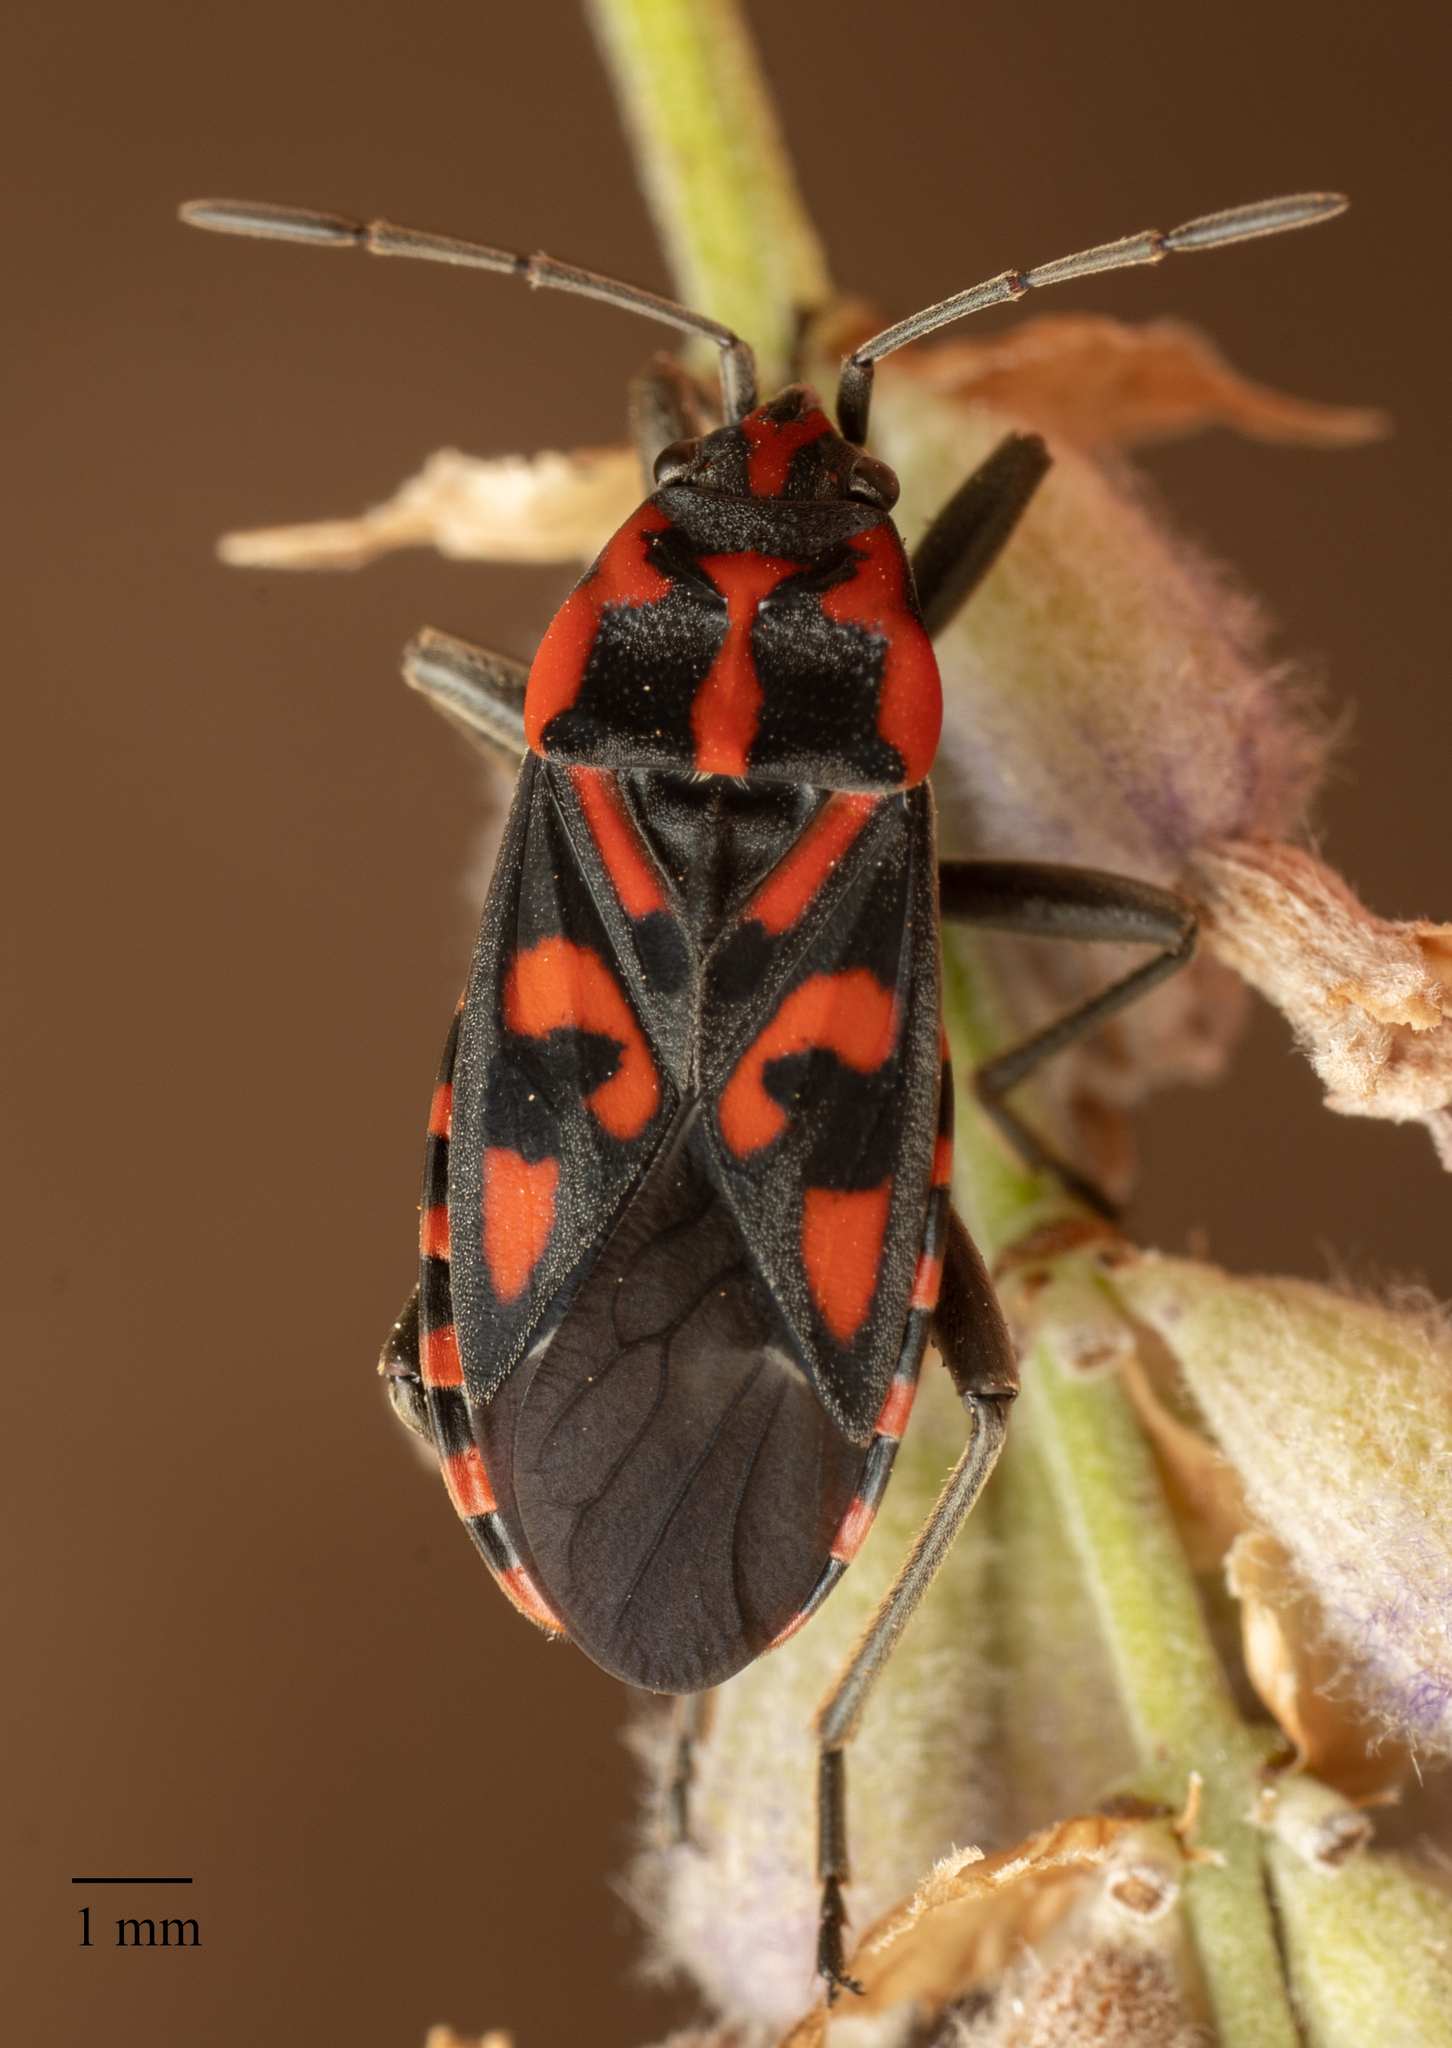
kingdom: Animalia
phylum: Arthropoda
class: Insecta
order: Hemiptera
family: Lygaeidae
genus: Spilostethus
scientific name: Spilostethus saxatilis
